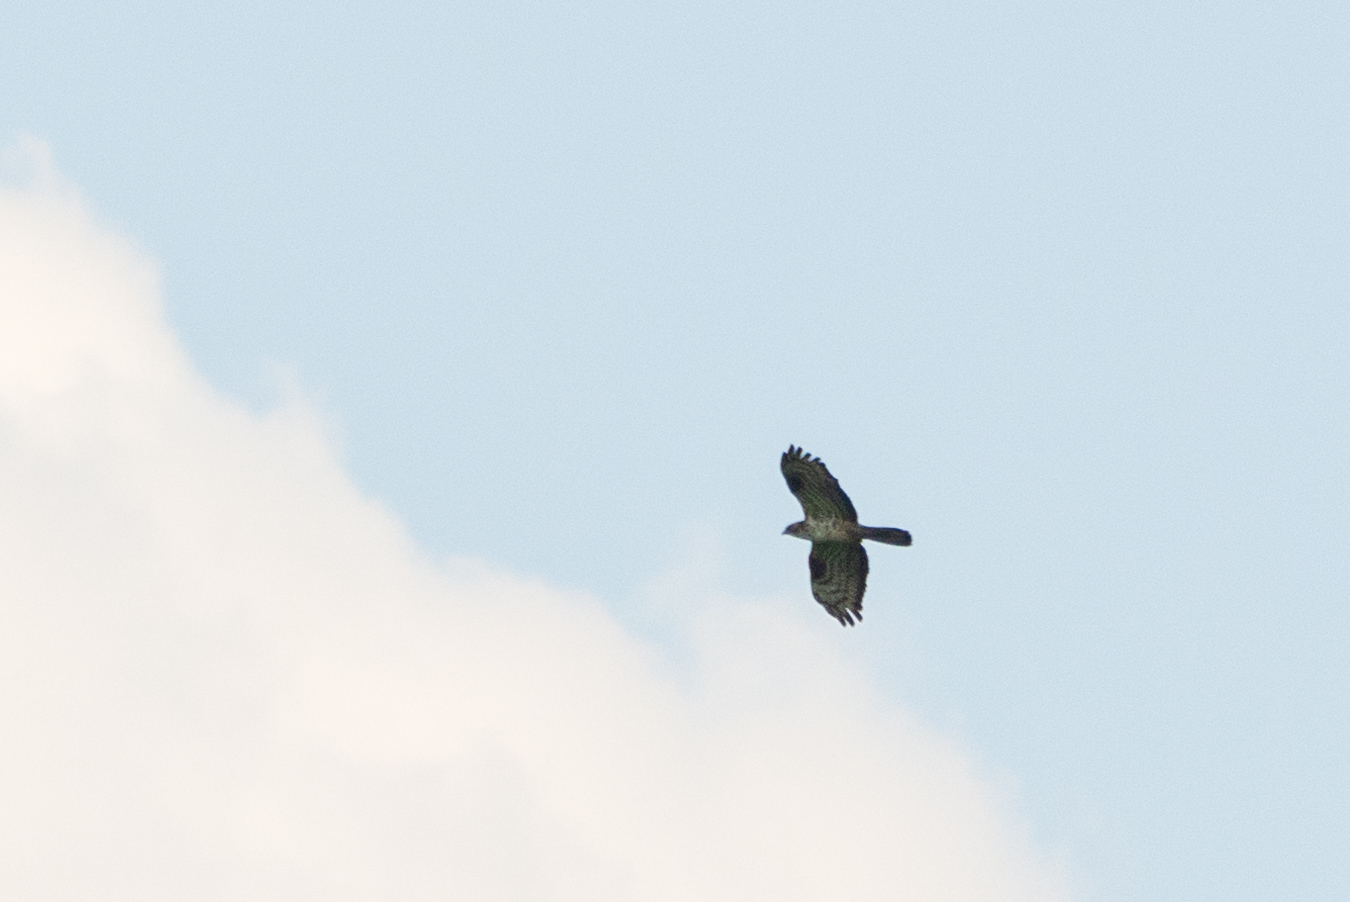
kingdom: Animalia
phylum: Chordata
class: Aves
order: Accipitriformes
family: Accipitridae
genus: Pernis
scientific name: Pernis apivorus
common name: European honey buzzard
